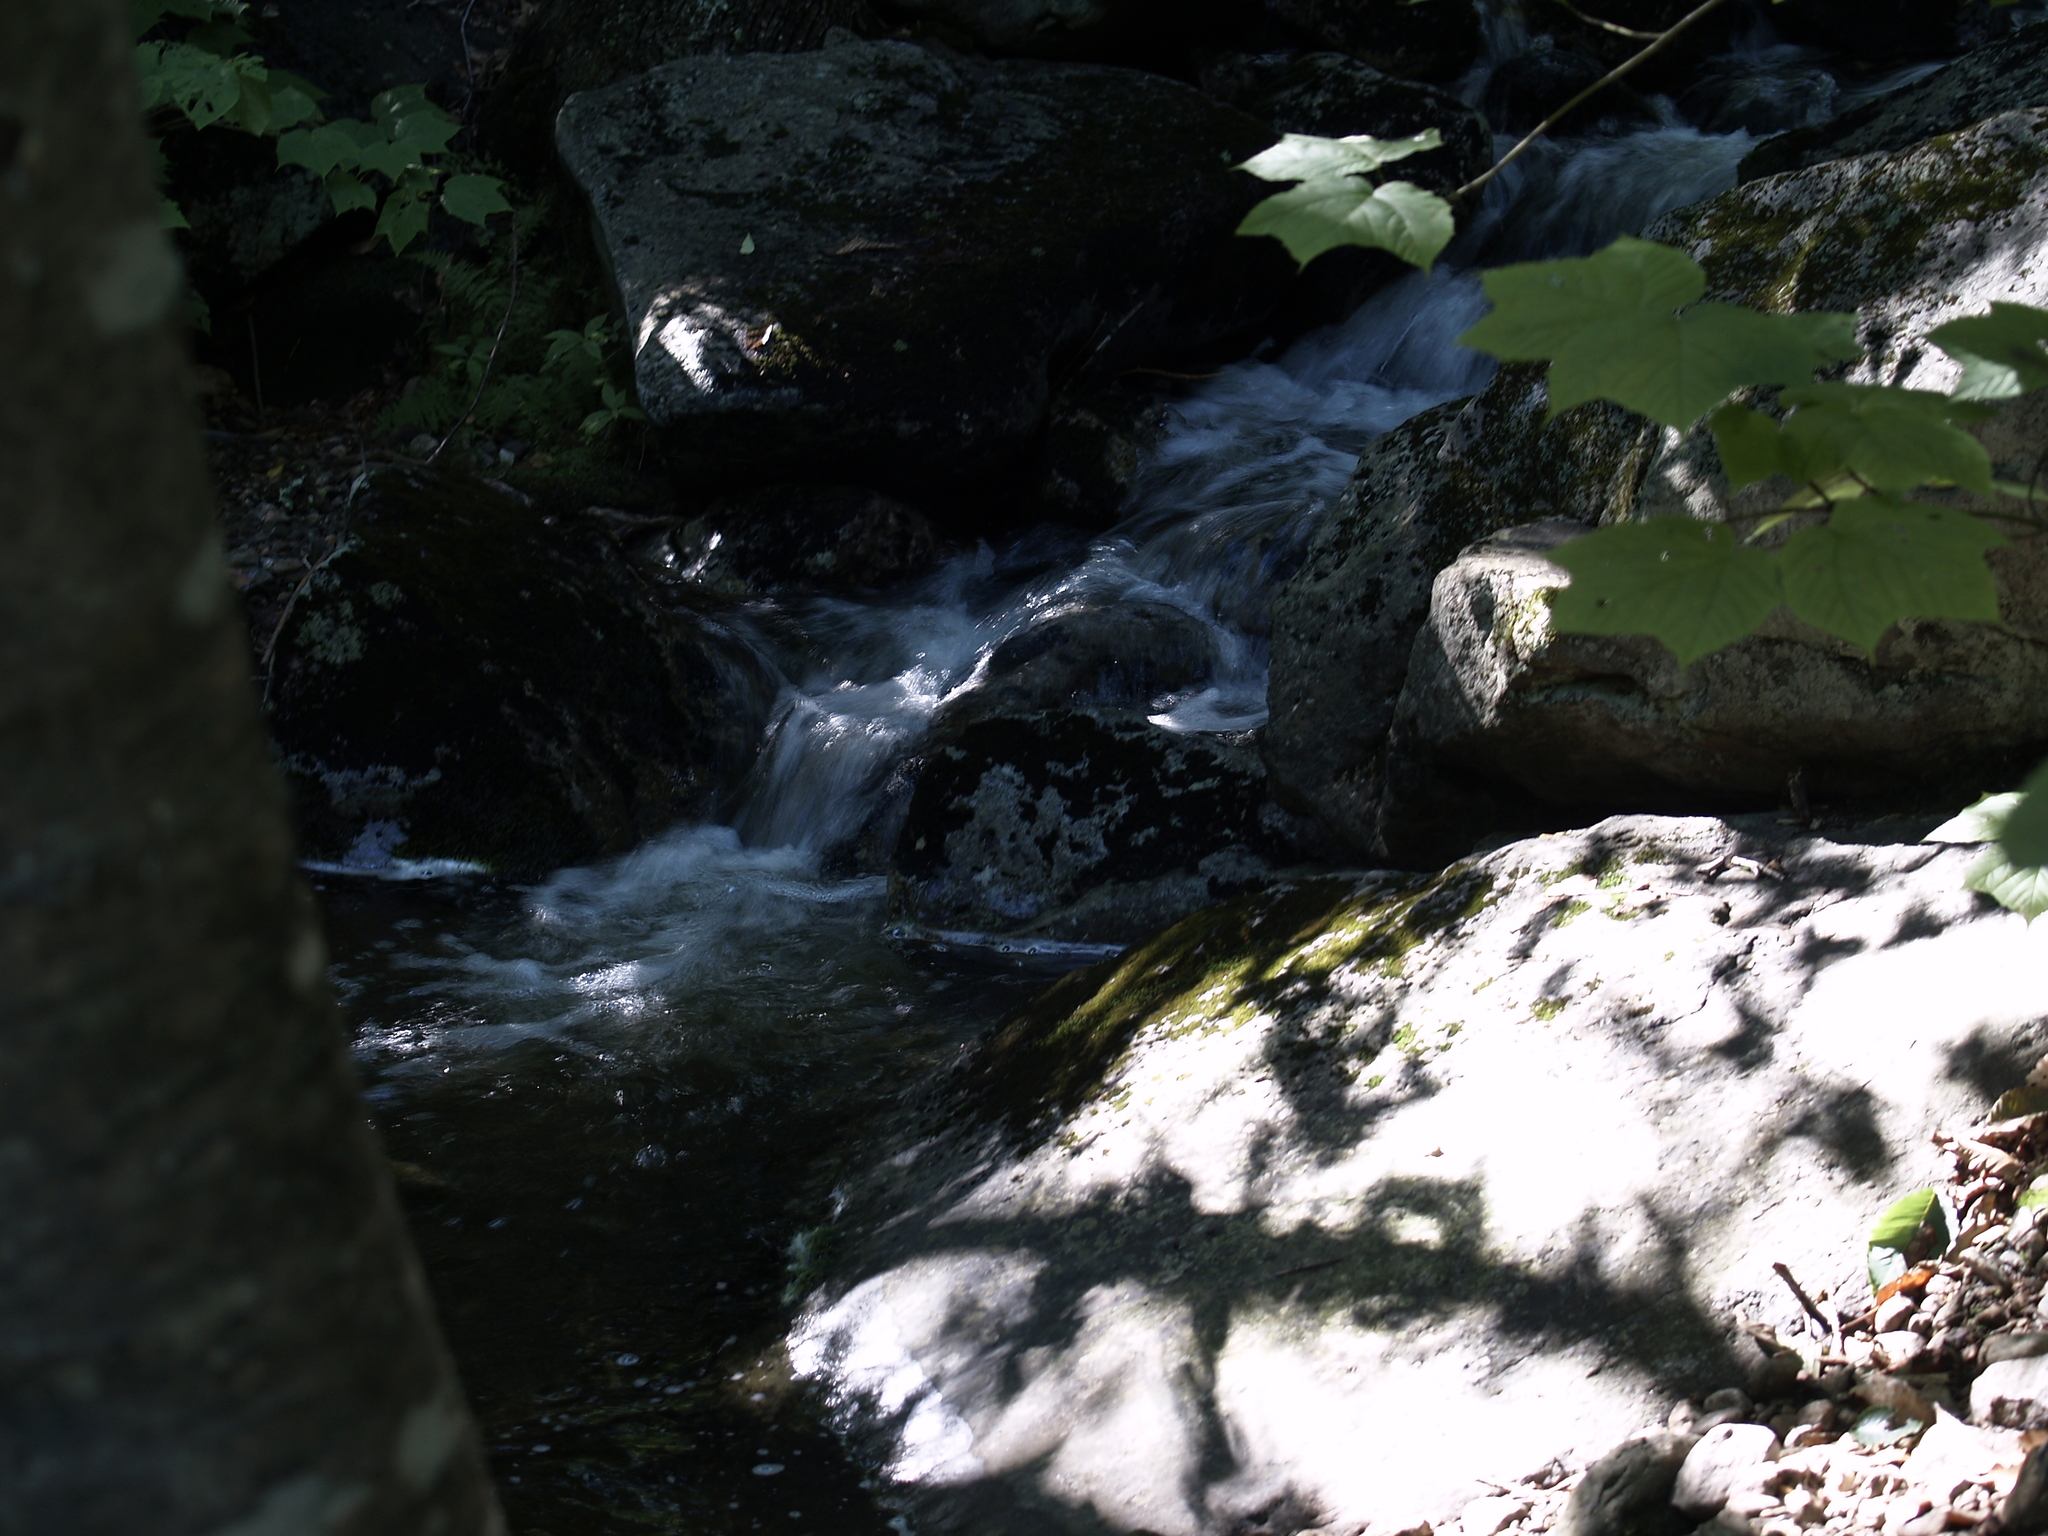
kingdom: Plantae
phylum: Tracheophyta
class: Magnoliopsida
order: Sapindales
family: Sapindaceae
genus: Acer
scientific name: Acer pensylvanicum
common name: Moosewood
